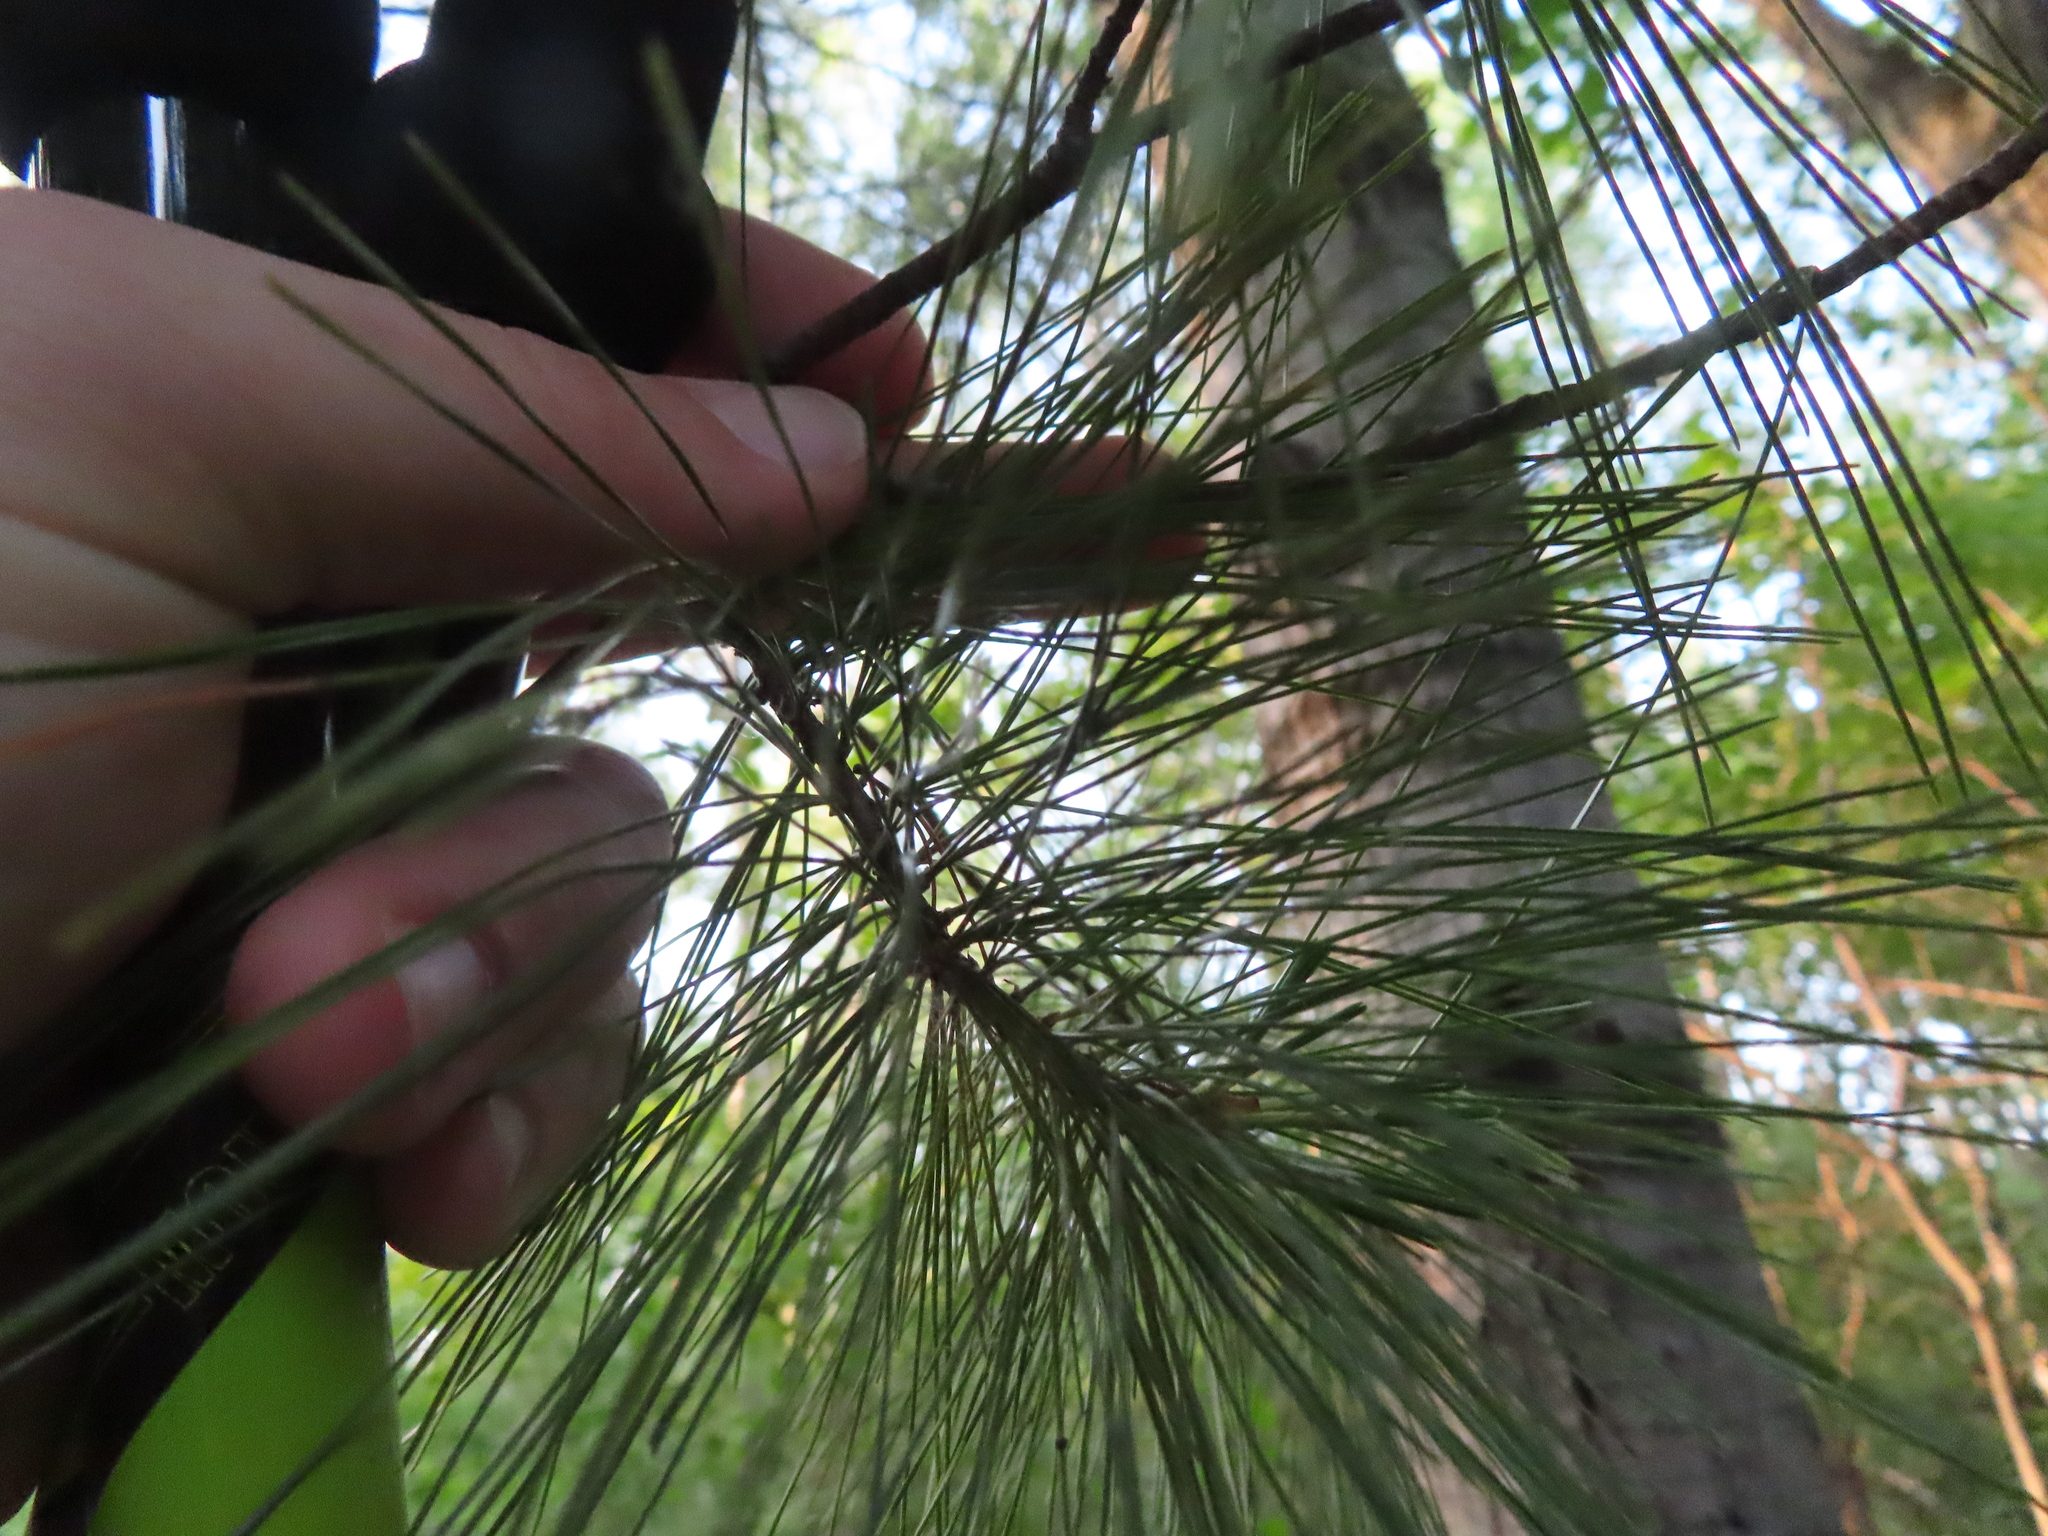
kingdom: Plantae
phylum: Tracheophyta
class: Pinopsida
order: Pinales
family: Pinaceae
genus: Pinus
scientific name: Pinus strobus
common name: Weymouth pine
